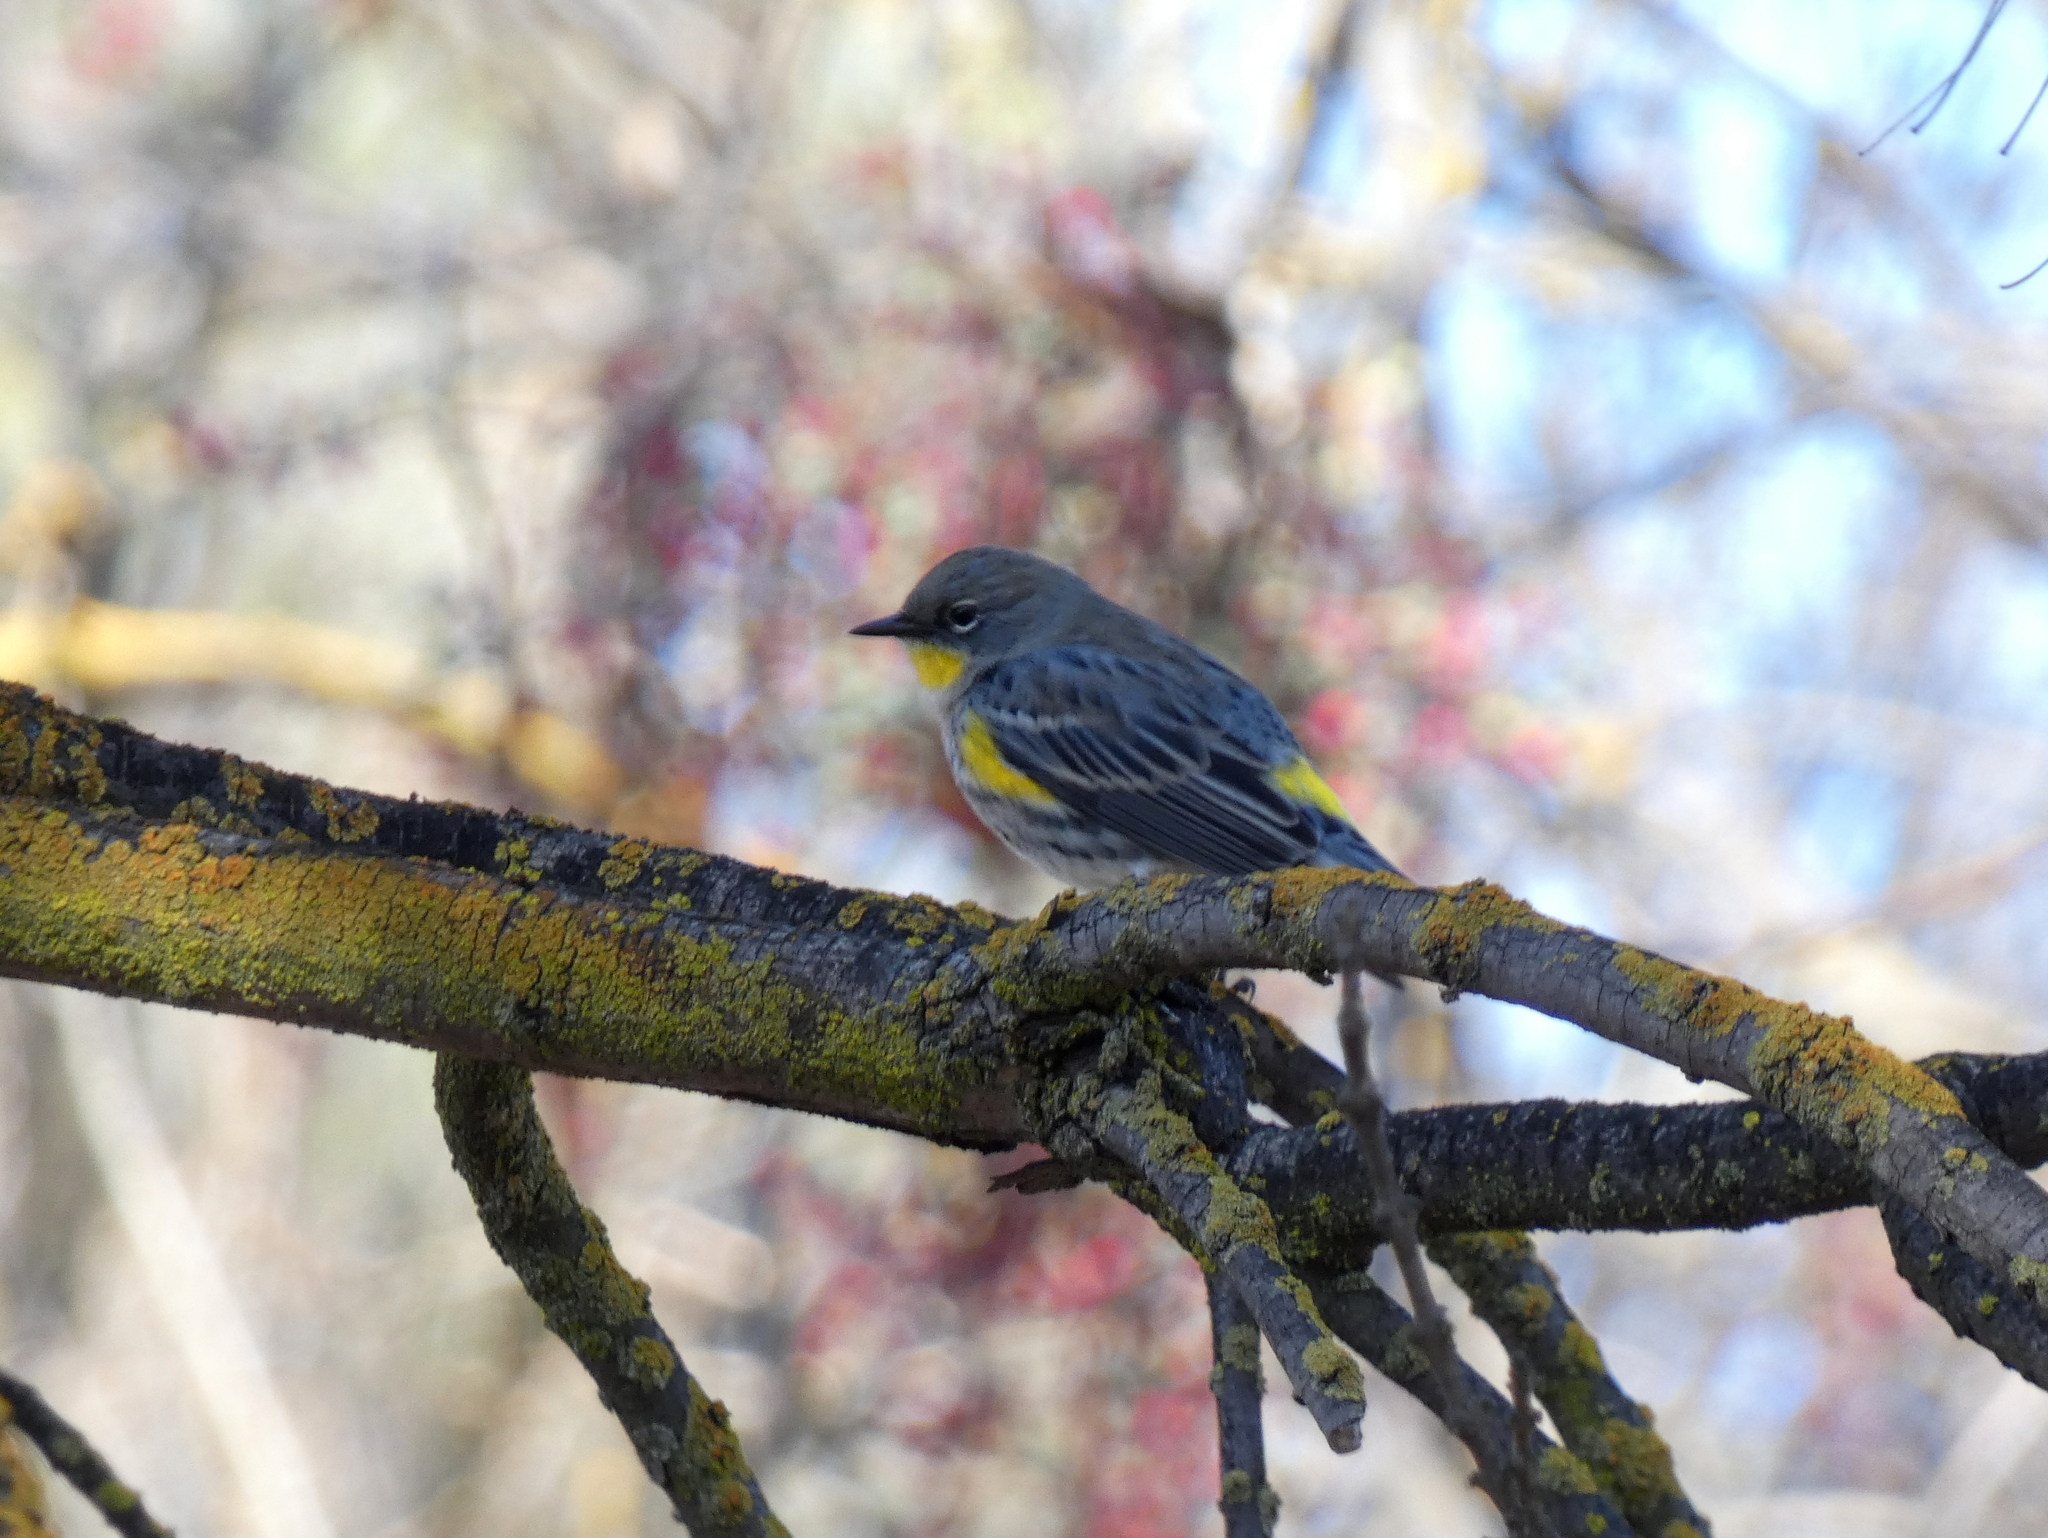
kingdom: Animalia
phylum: Chordata
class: Aves
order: Passeriformes
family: Parulidae
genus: Setophaga
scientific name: Setophaga coronata
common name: Myrtle warbler
